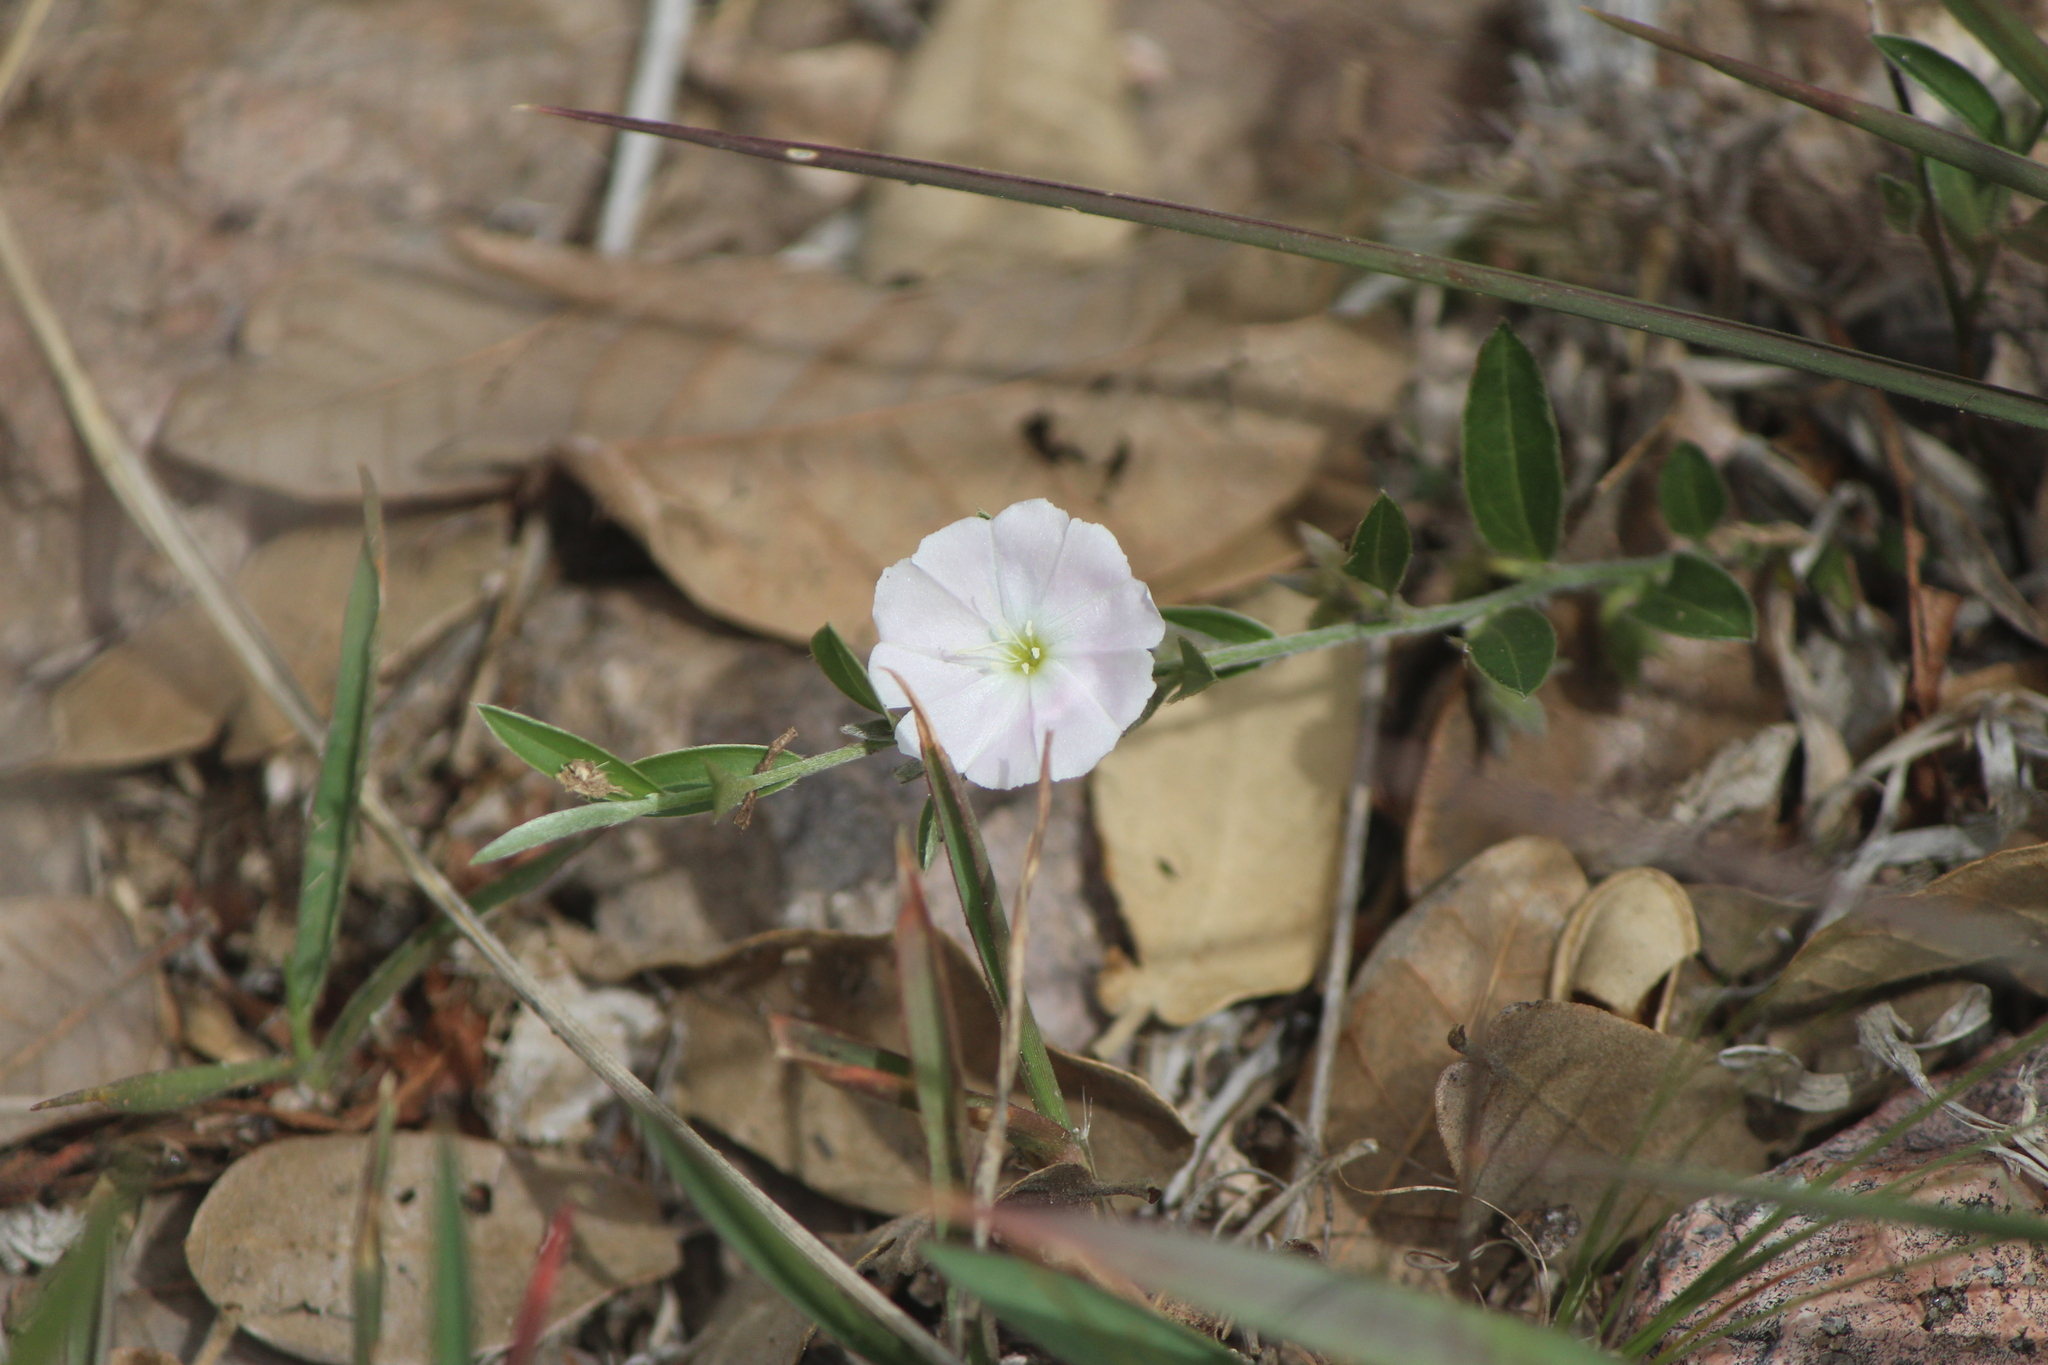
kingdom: Plantae
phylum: Tracheophyta
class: Magnoliopsida
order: Solanales
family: Convolvulaceae
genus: Evolvulus
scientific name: Evolvulus sericeus
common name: Blue dots
